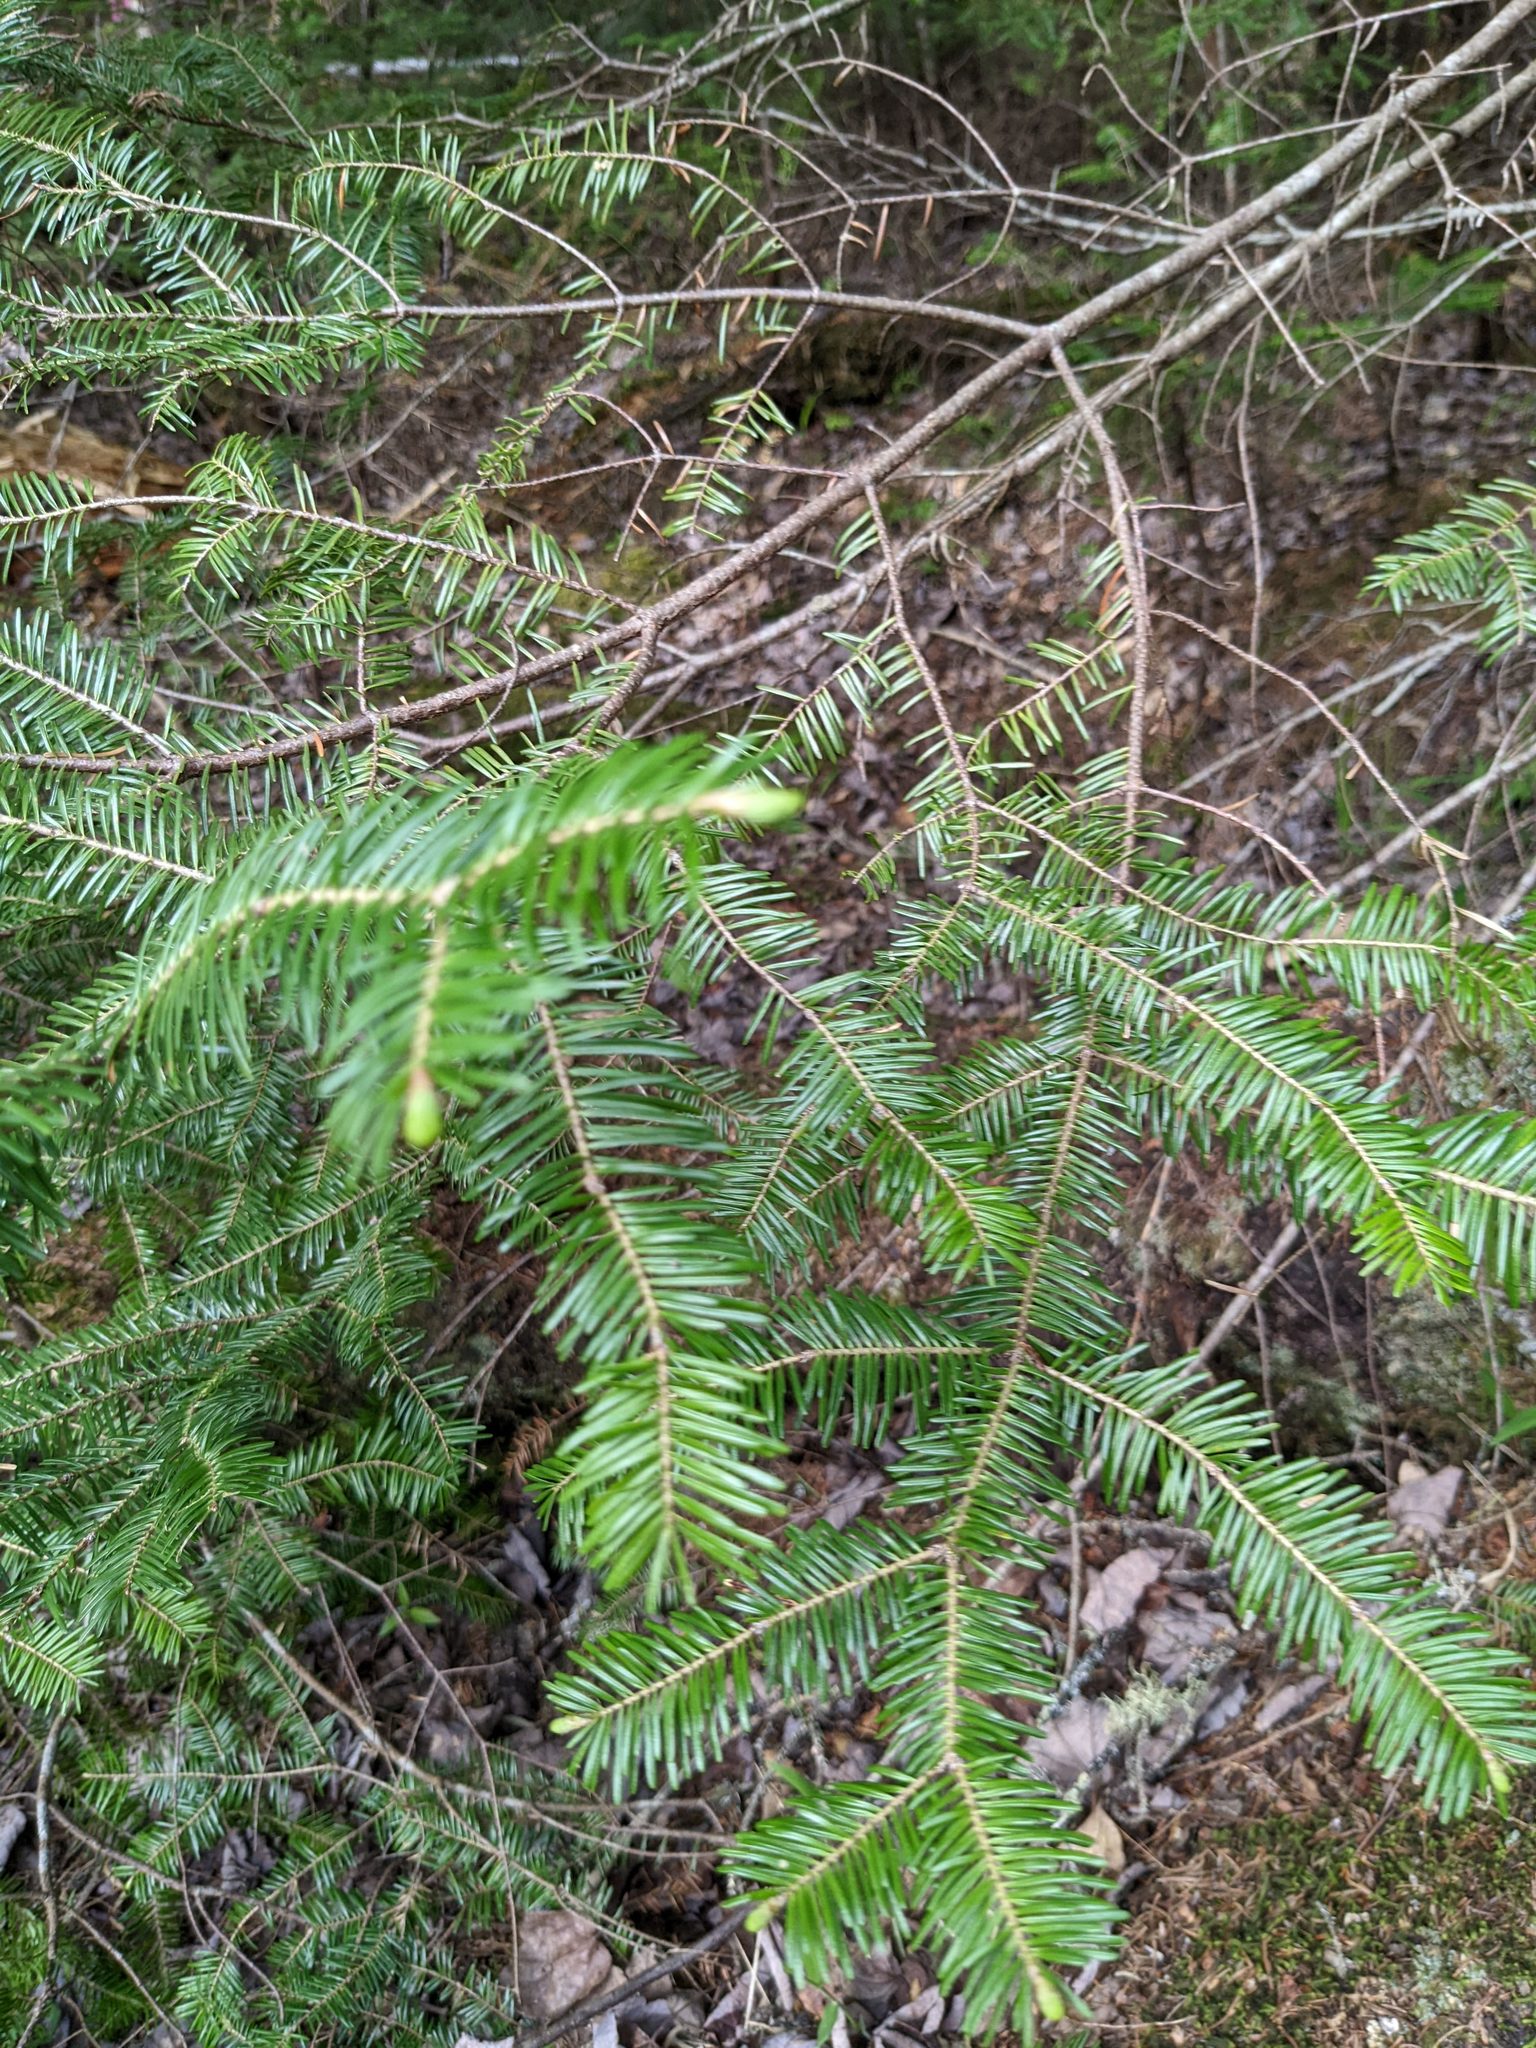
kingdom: Plantae
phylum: Tracheophyta
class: Pinopsida
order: Pinales
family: Pinaceae
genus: Abies
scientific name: Abies balsamea
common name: Balsam fir
